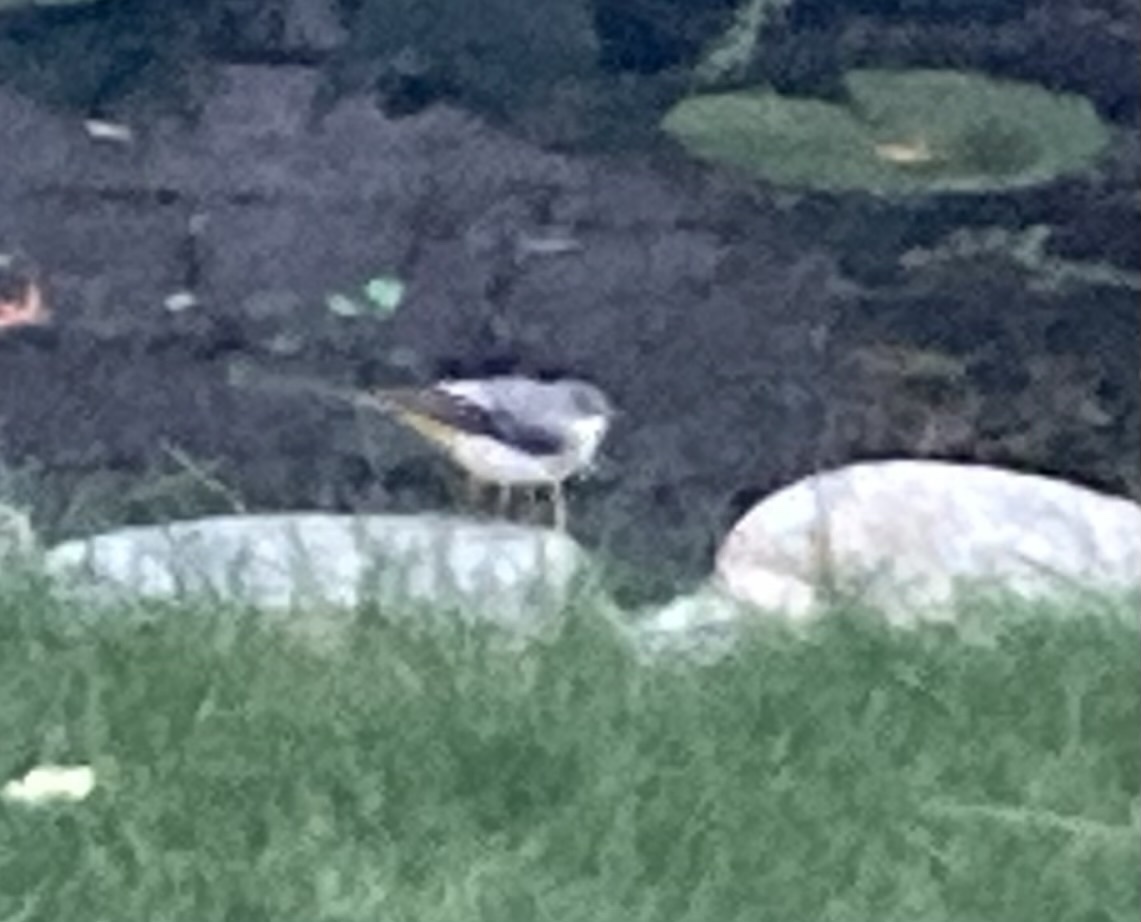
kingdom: Animalia
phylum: Chordata
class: Aves
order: Passeriformes
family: Motacillidae
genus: Motacilla
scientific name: Motacilla cinerea
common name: Grey wagtail
